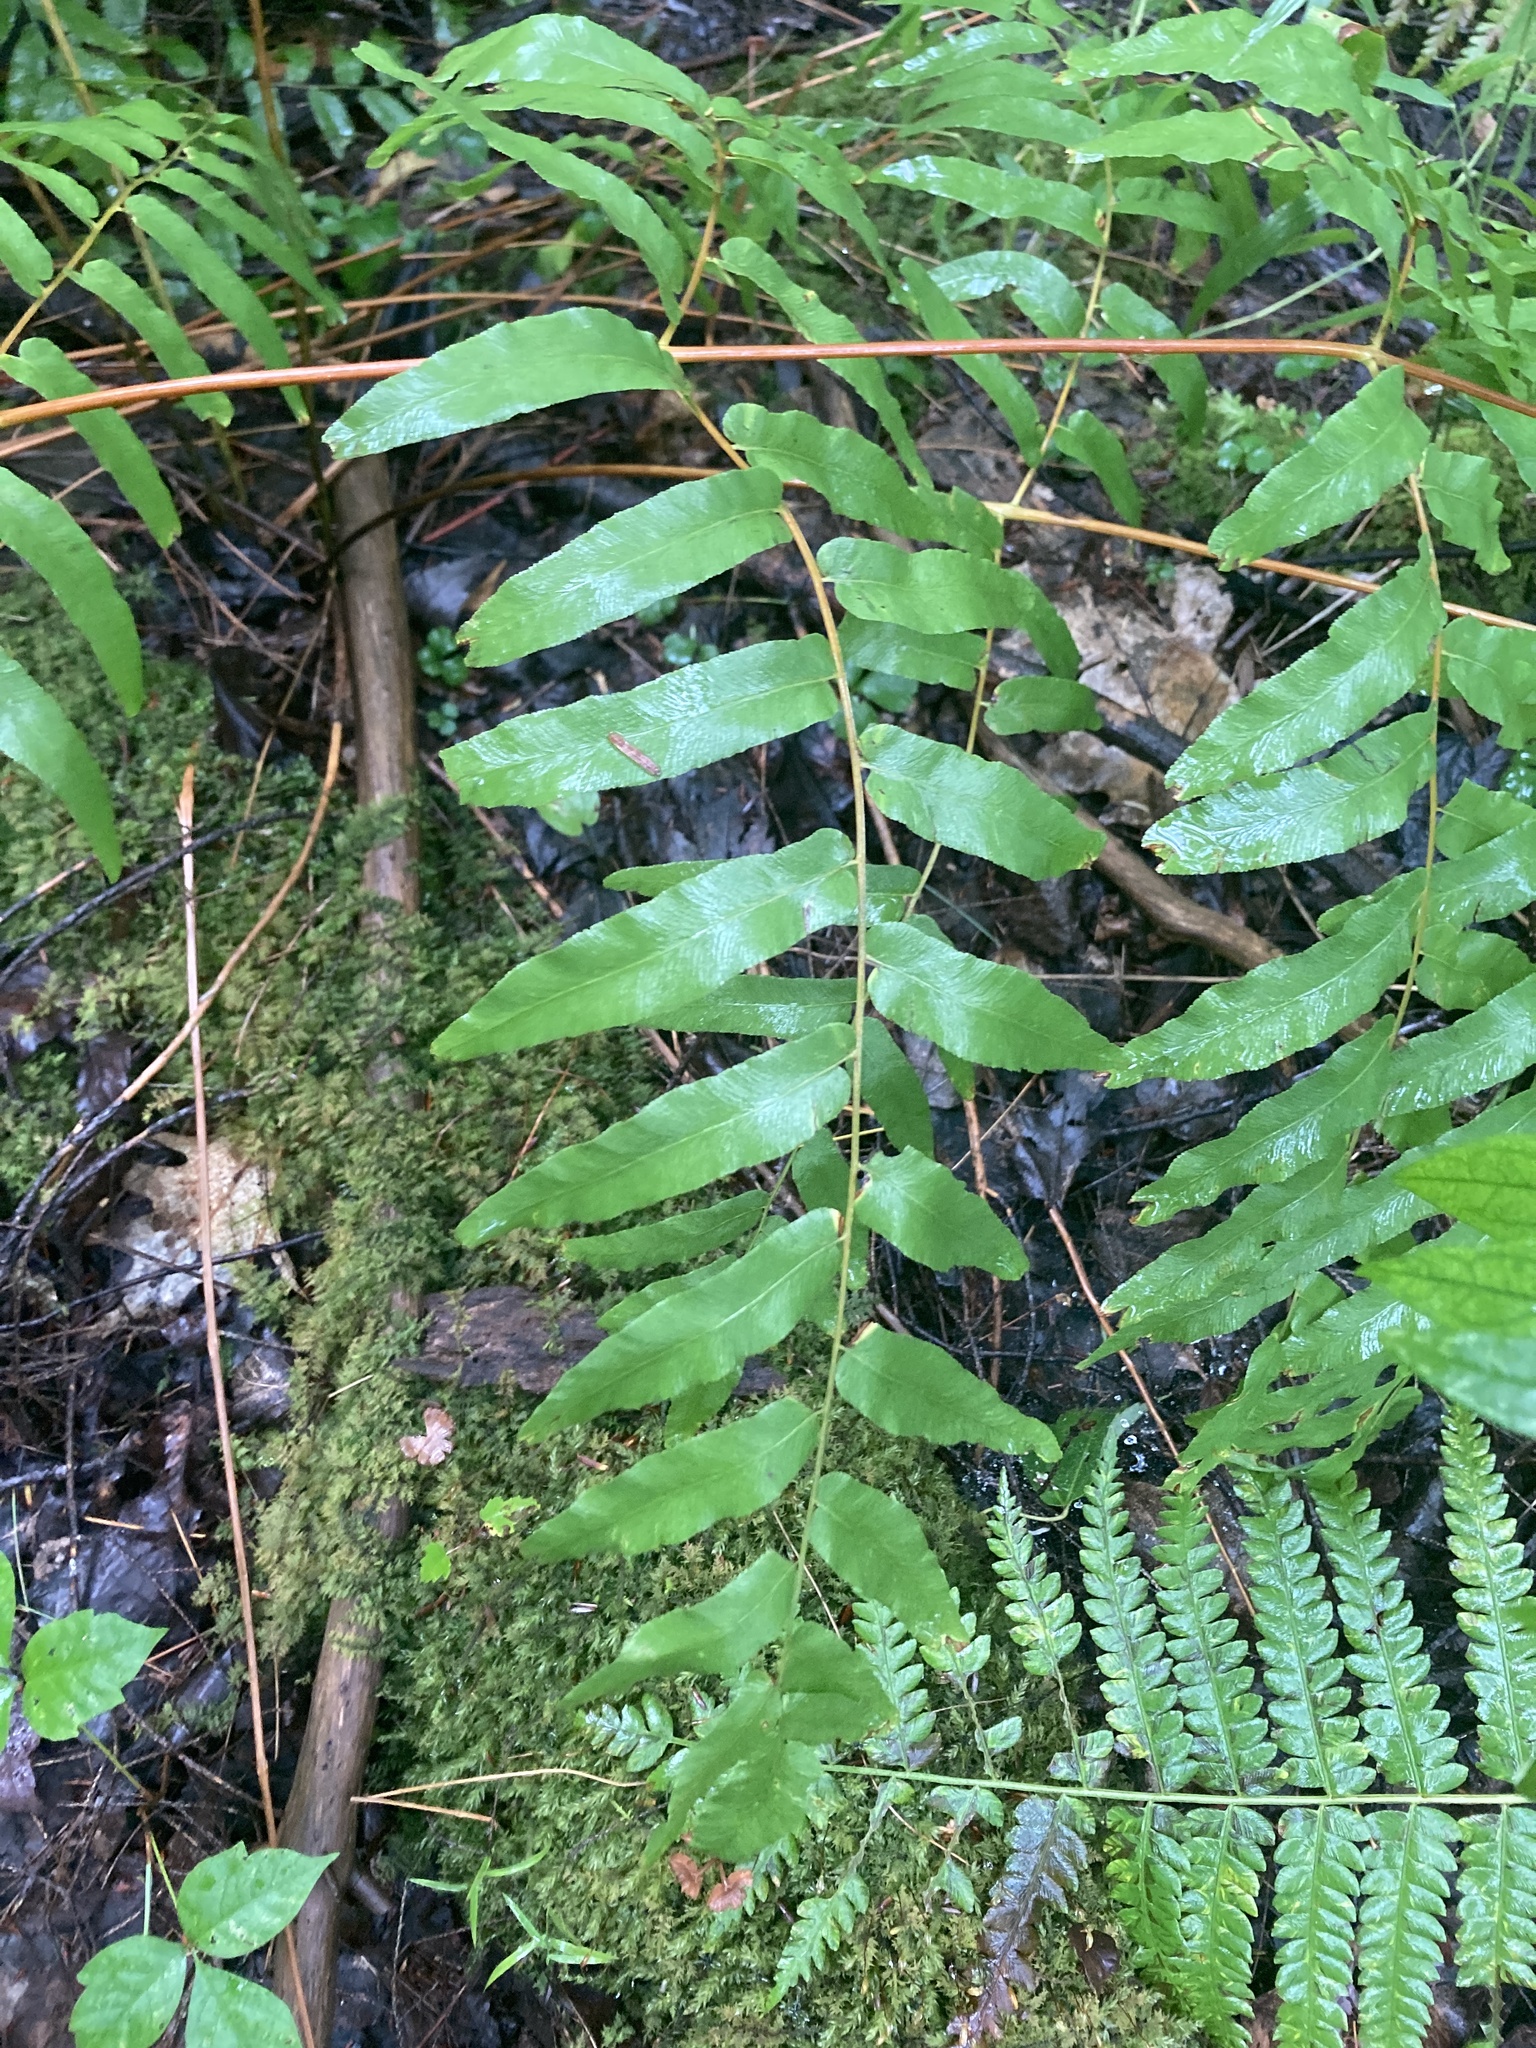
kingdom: Plantae
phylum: Tracheophyta
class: Polypodiopsida
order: Osmundales
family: Osmundaceae
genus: Osmunda
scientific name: Osmunda spectabilis
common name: American royal fern
